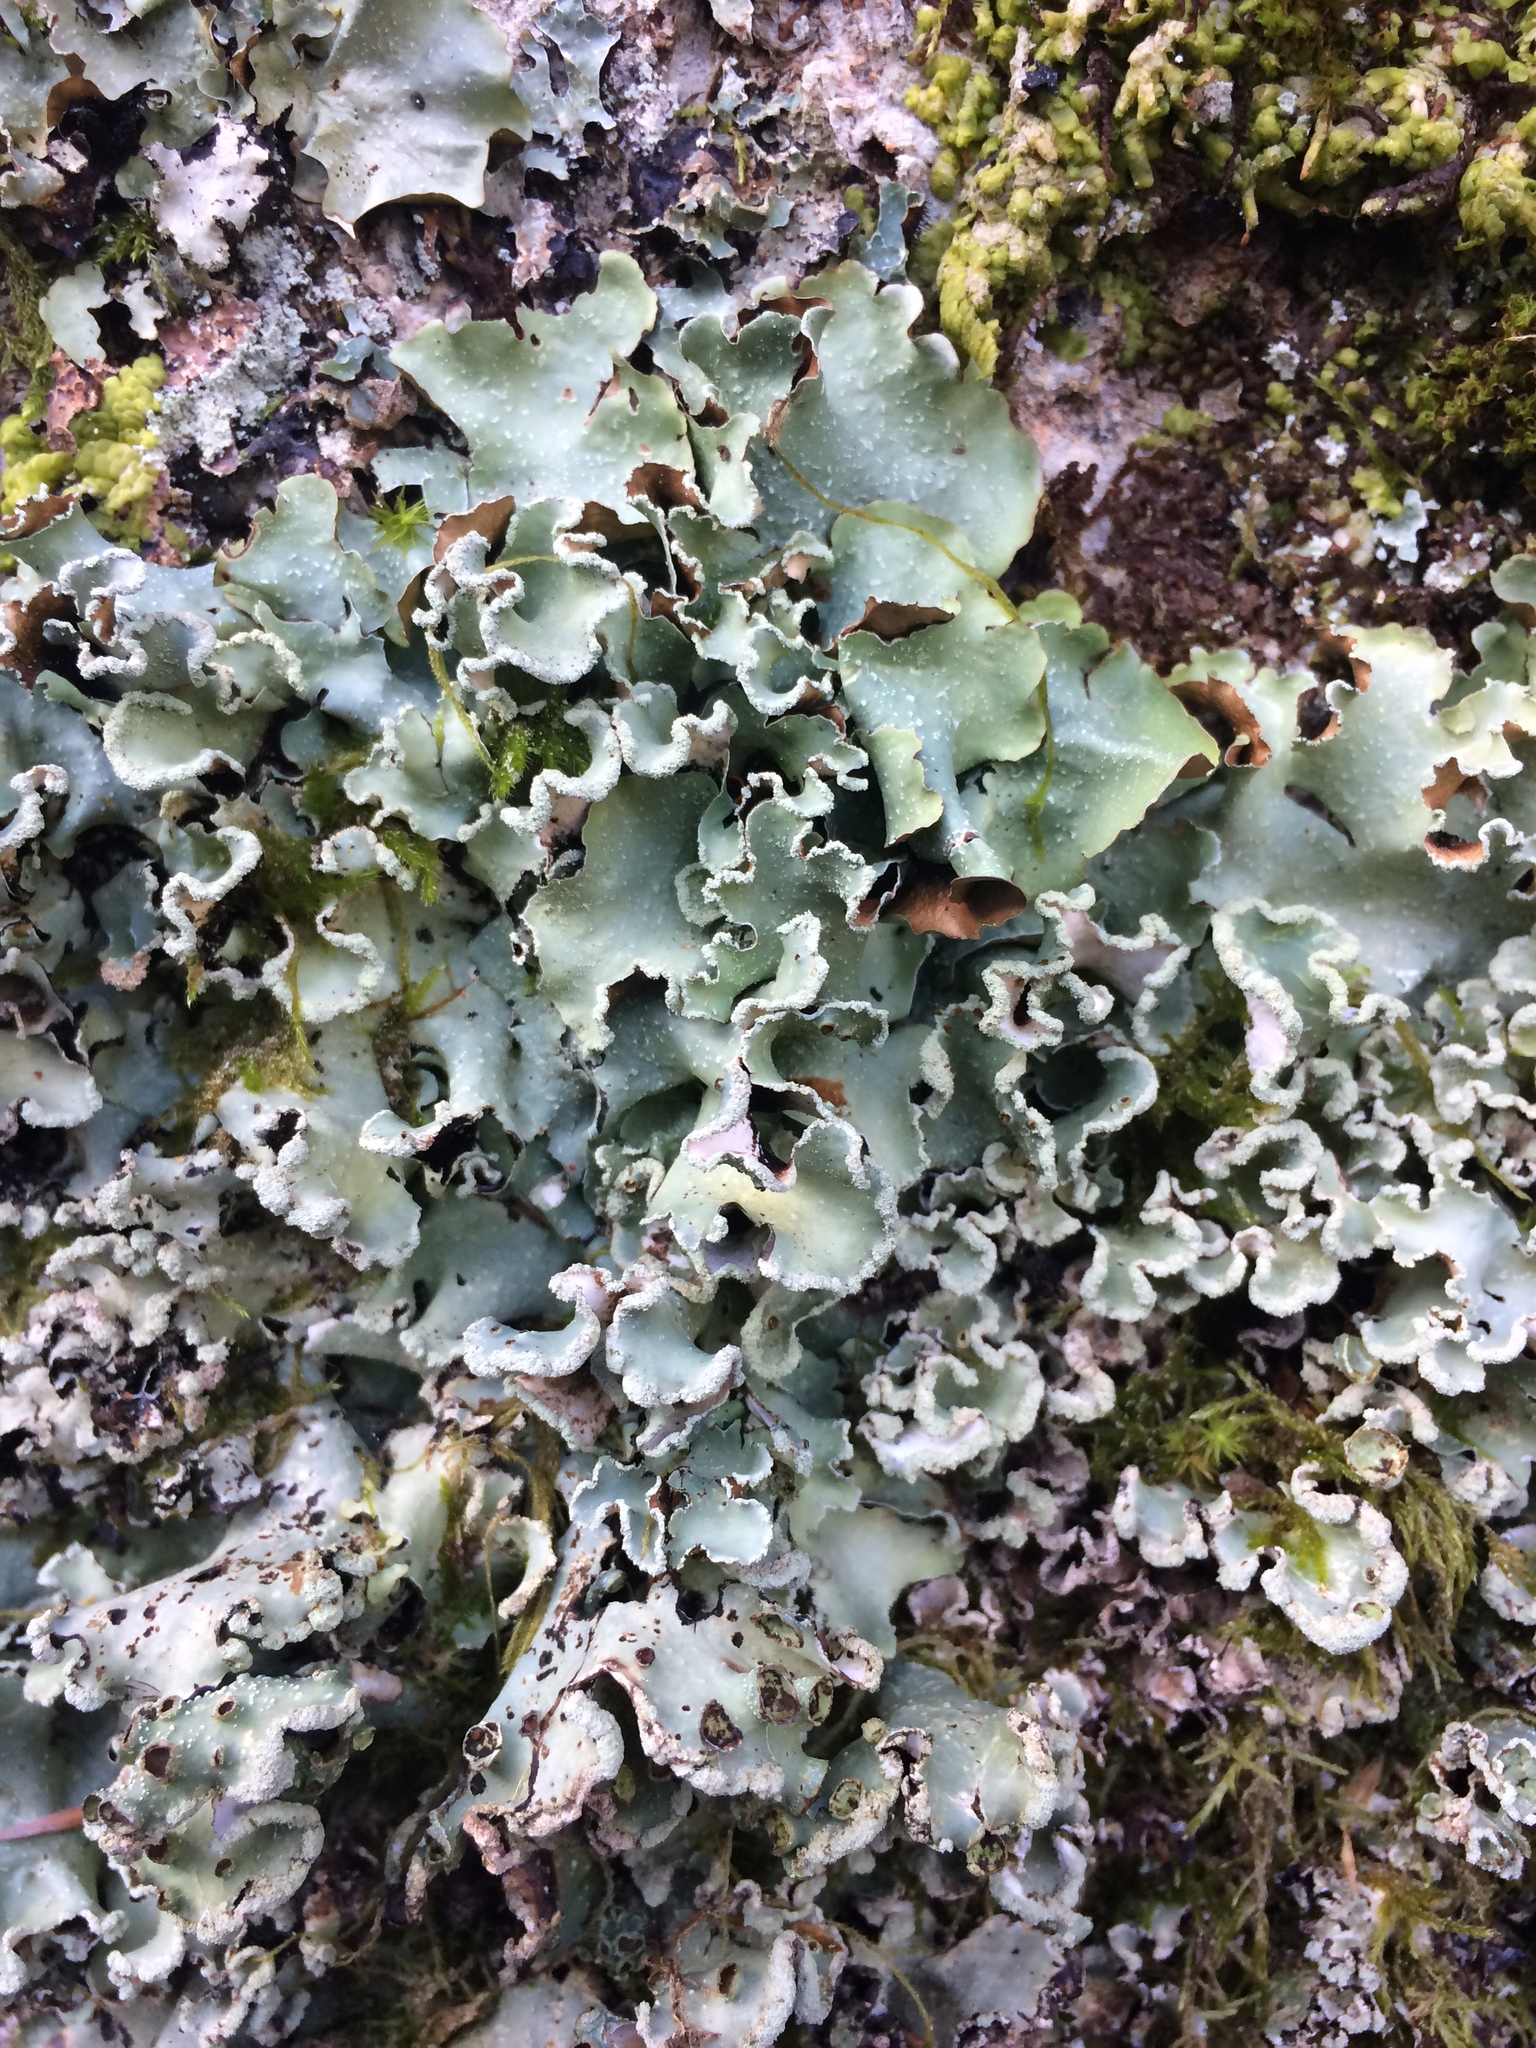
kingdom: Fungi
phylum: Ascomycota
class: Lecanoromycetes
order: Lecanorales
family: Parmeliaceae
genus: Cetrelia
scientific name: Cetrelia
